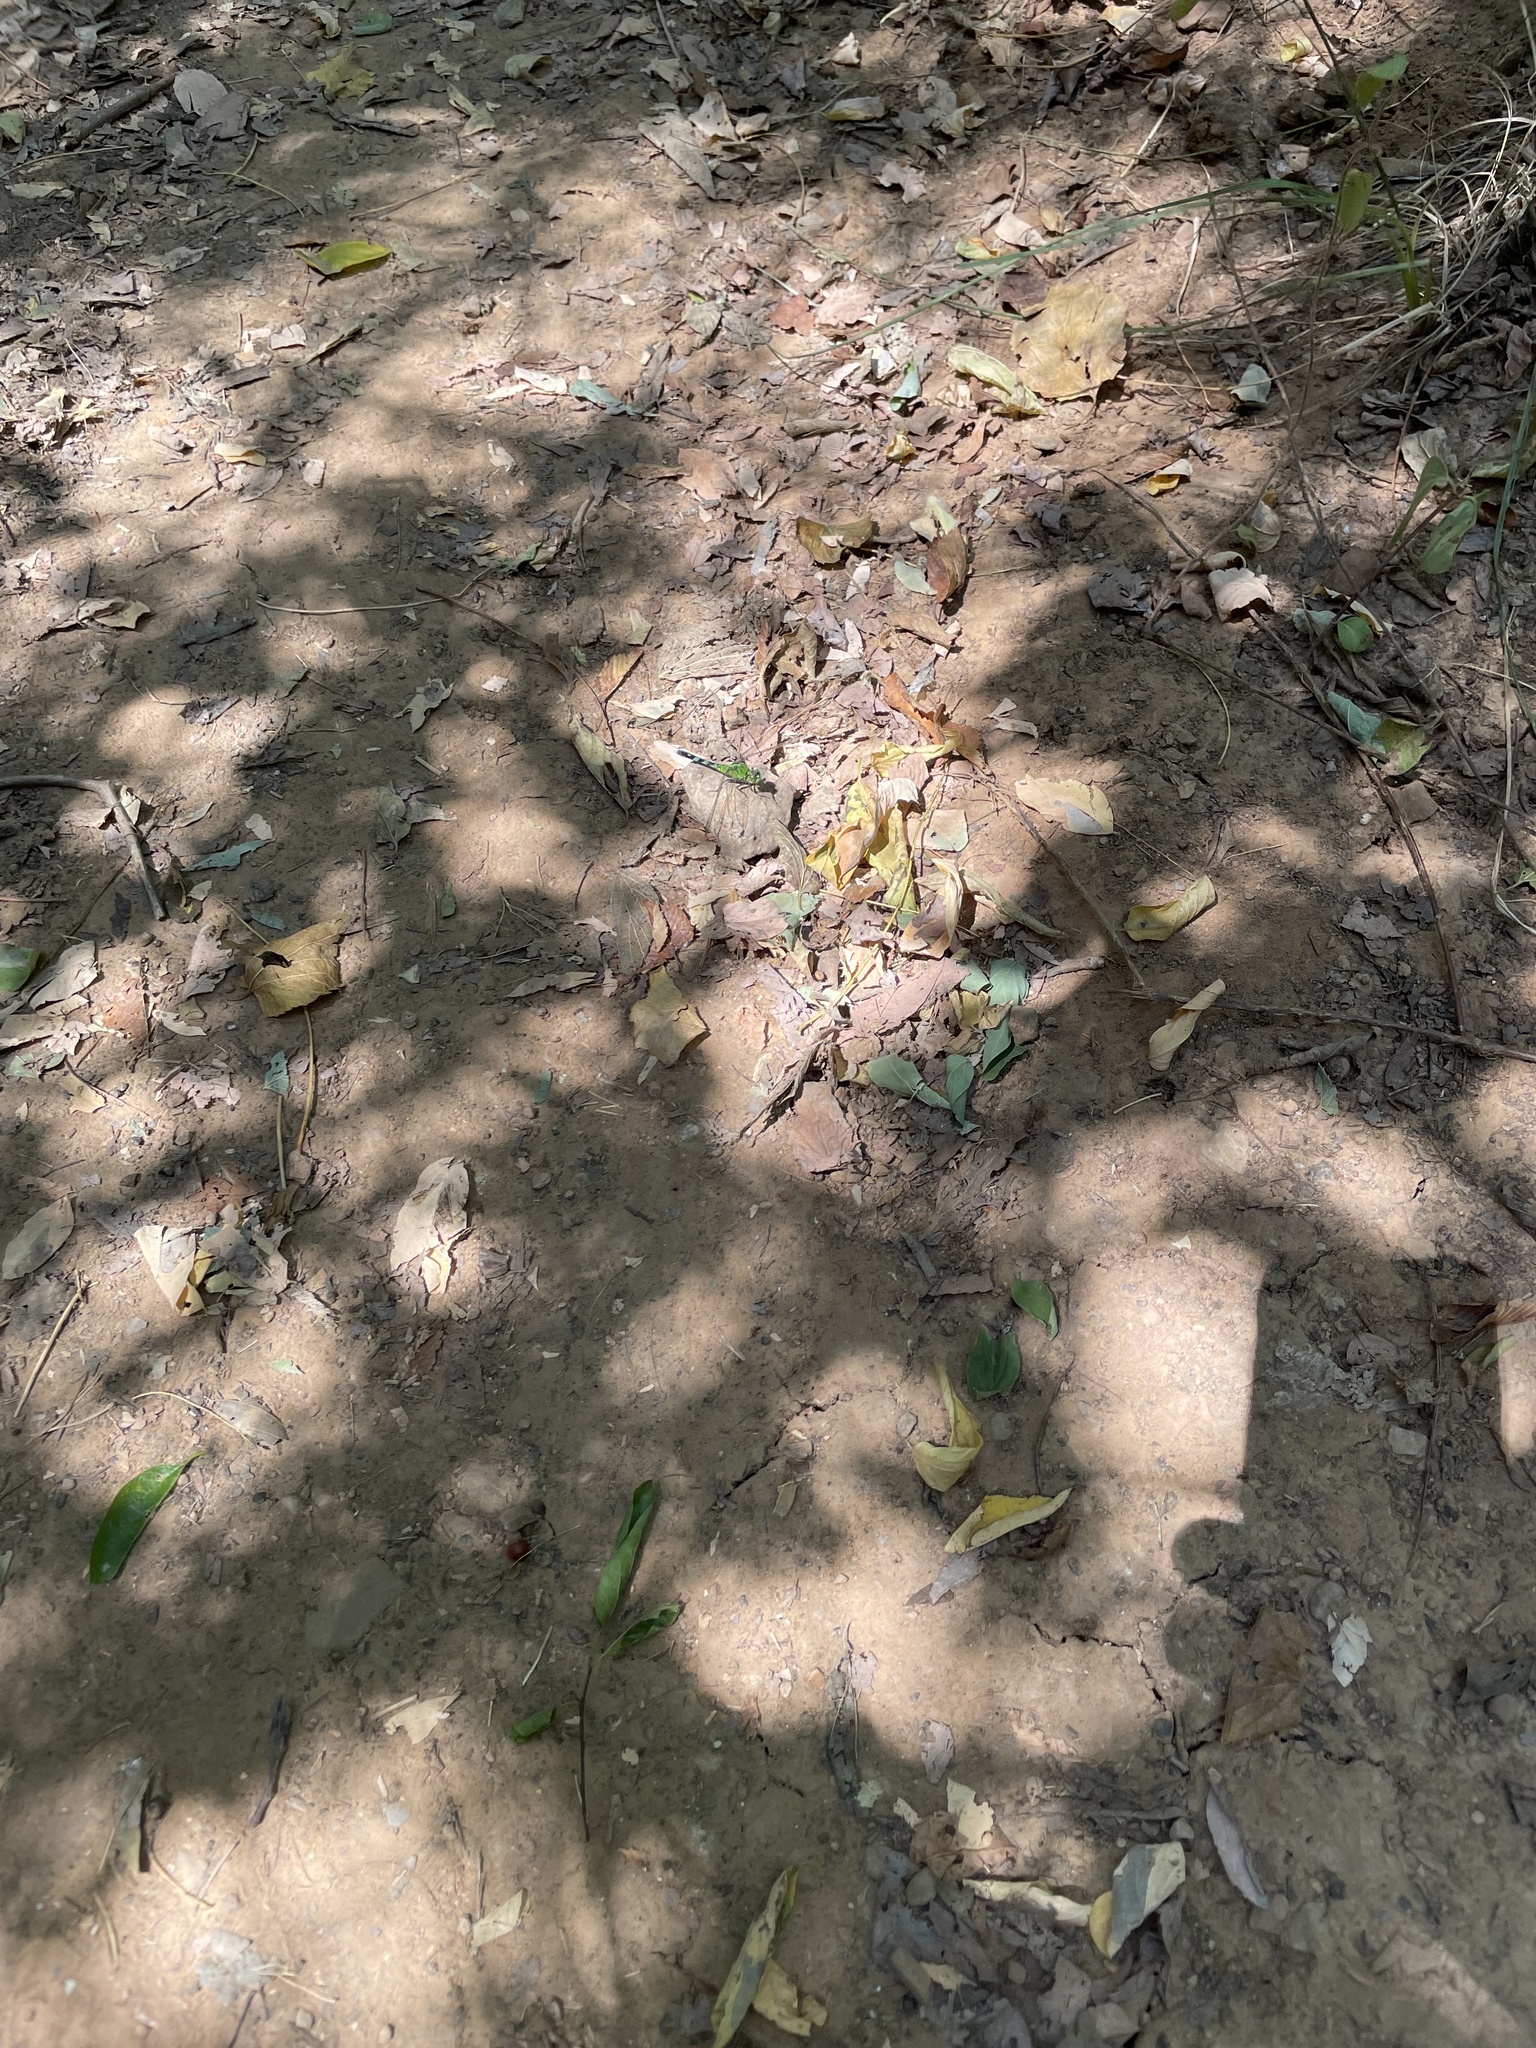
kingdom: Animalia
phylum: Arthropoda
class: Insecta
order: Odonata
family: Libellulidae
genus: Erythemis
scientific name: Erythemis simplicicollis
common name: Eastern pondhawk
